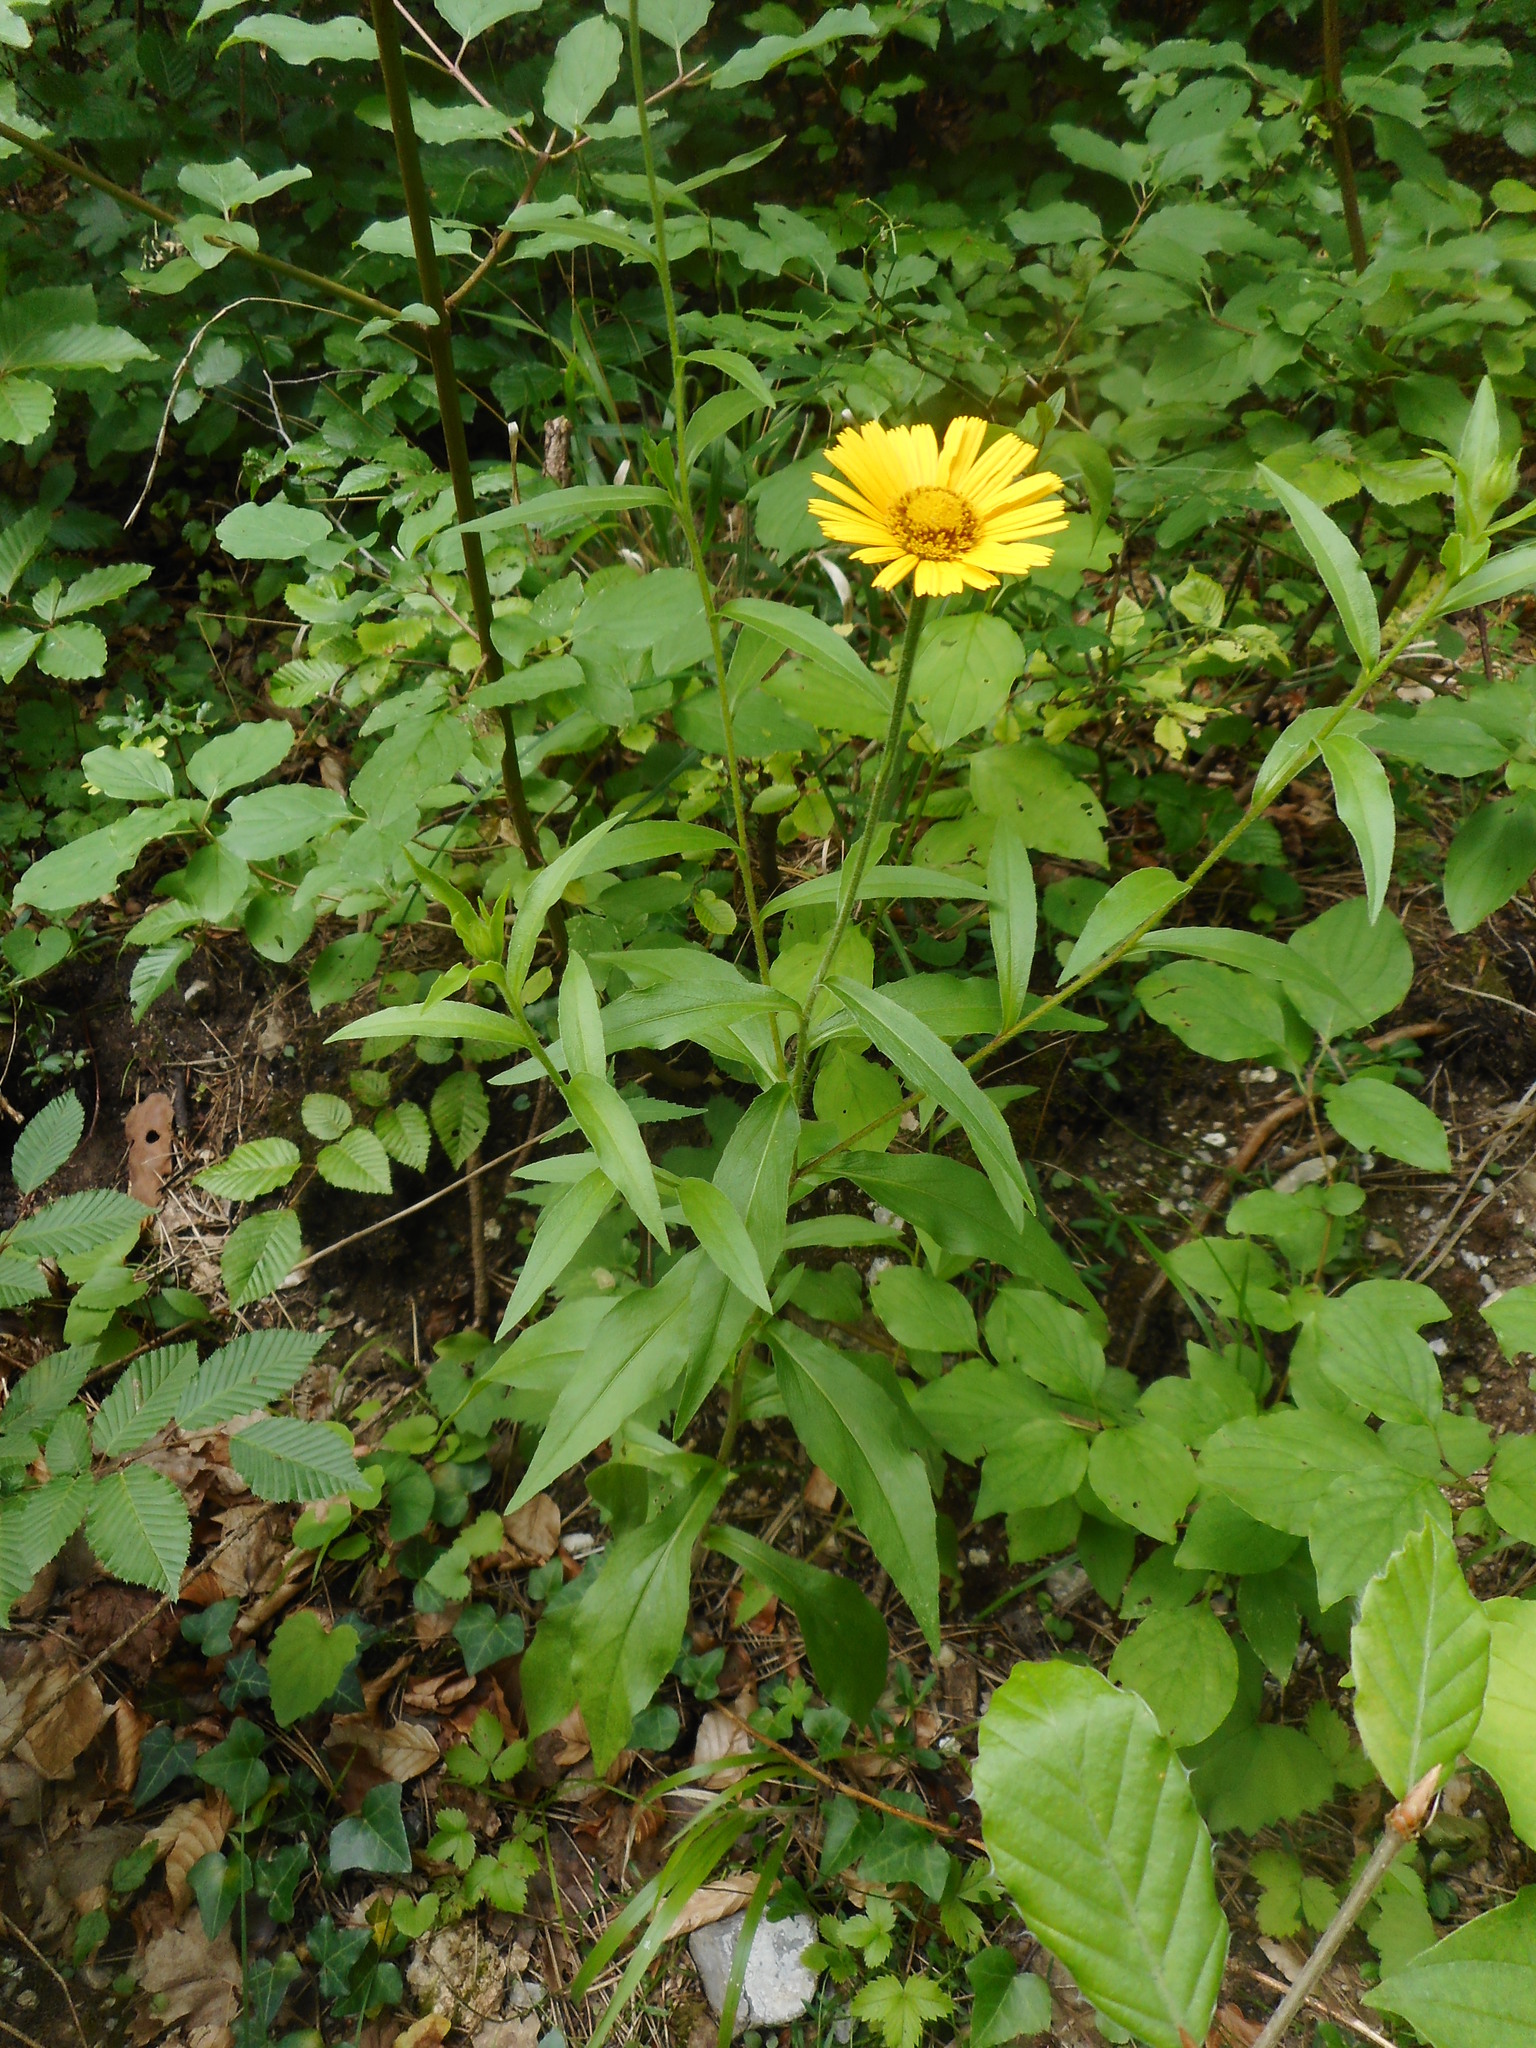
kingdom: Plantae
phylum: Tracheophyta
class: Magnoliopsida
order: Asterales
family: Asteraceae
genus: Buphthalmum
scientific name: Buphthalmum salicifolium
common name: Willow-leaved yellow-oxeye
